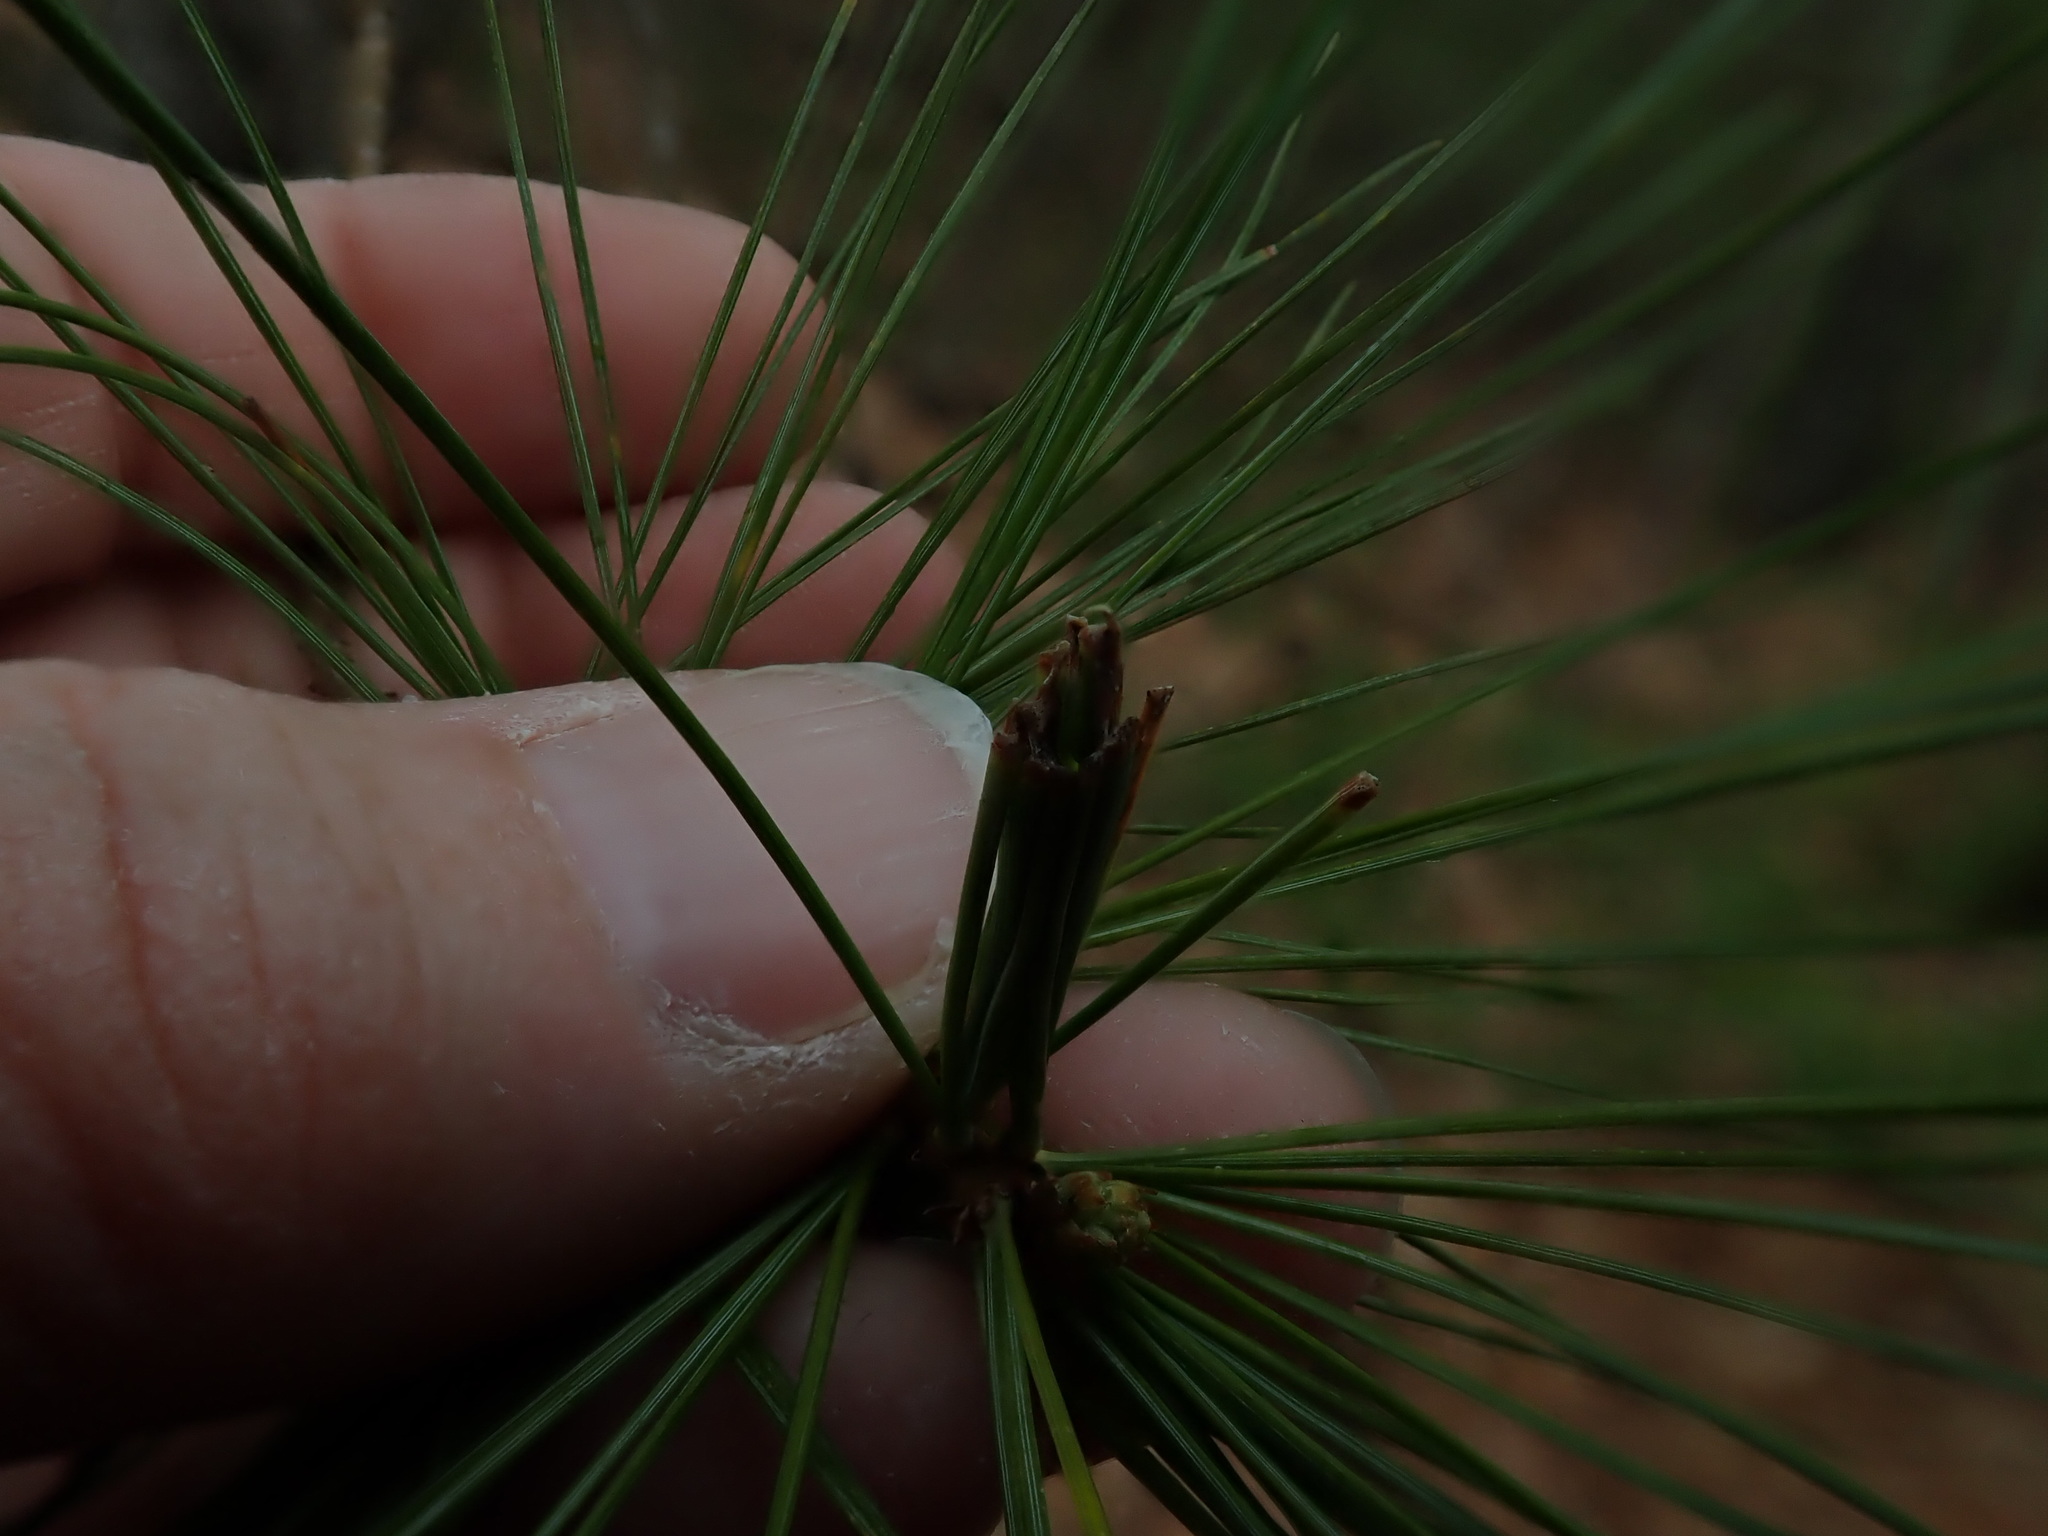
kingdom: Animalia
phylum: Arthropoda
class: Insecta
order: Lepidoptera
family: Tortricidae
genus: Argyrotaenia
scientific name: Argyrotaenia pinatubana
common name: Pine tube moth
